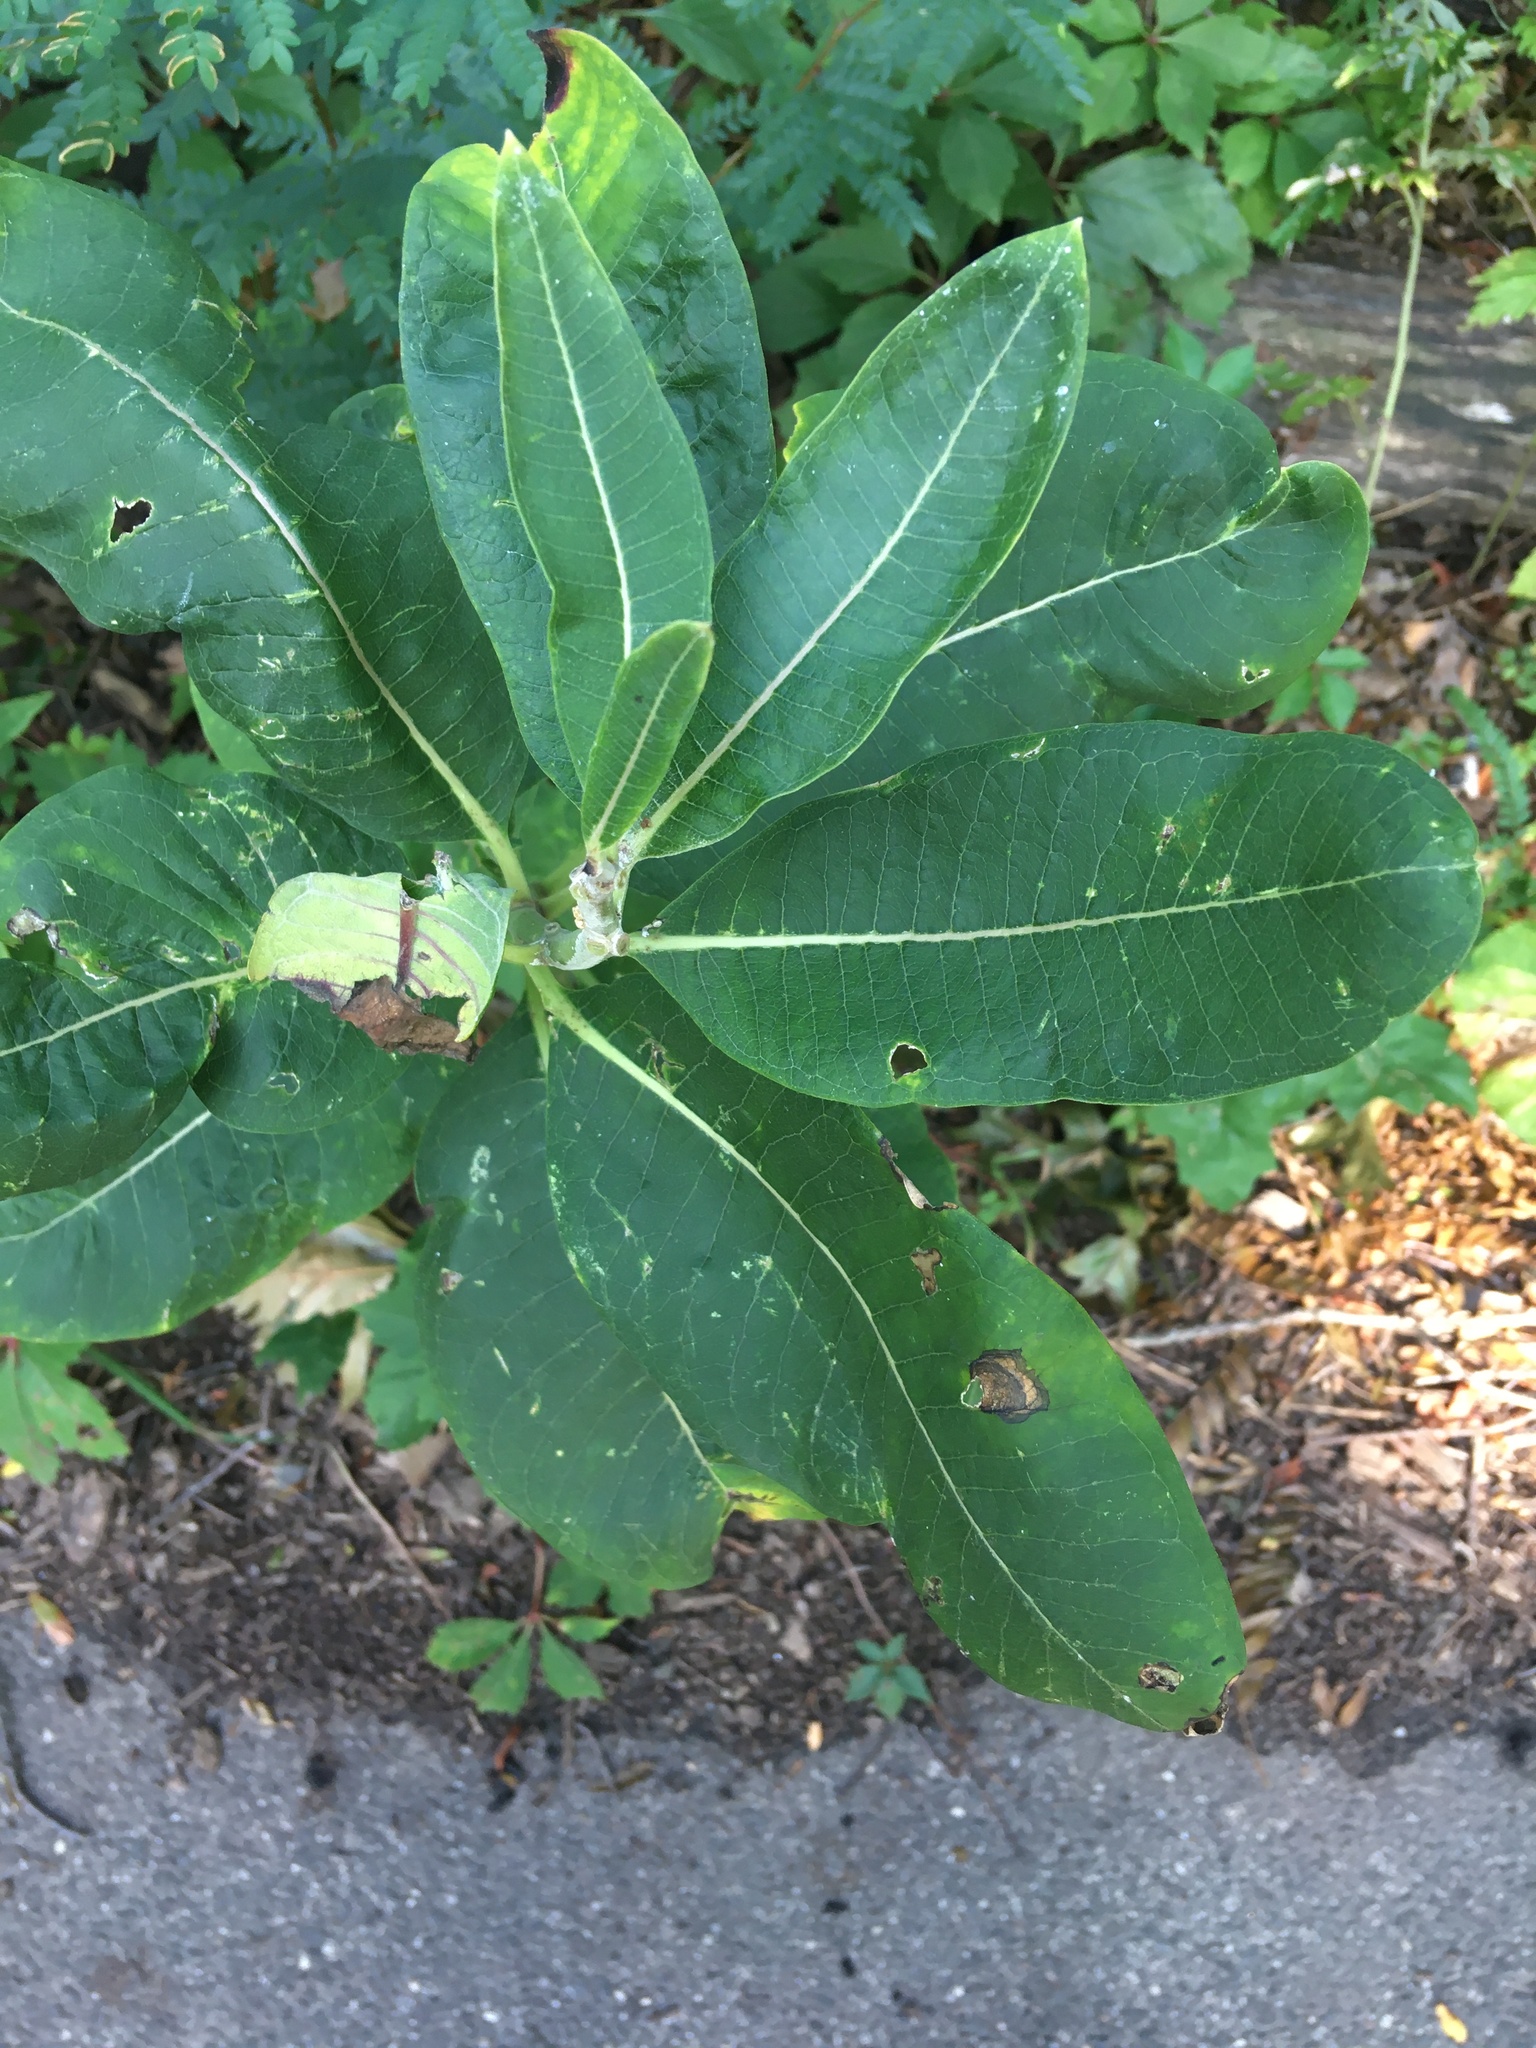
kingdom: Plantae
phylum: Tracheophyta
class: Magnoliopsida
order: Gentianales
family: Apocynaceae
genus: Asclepias
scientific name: Asclepias syriaca
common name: Common milkweed
